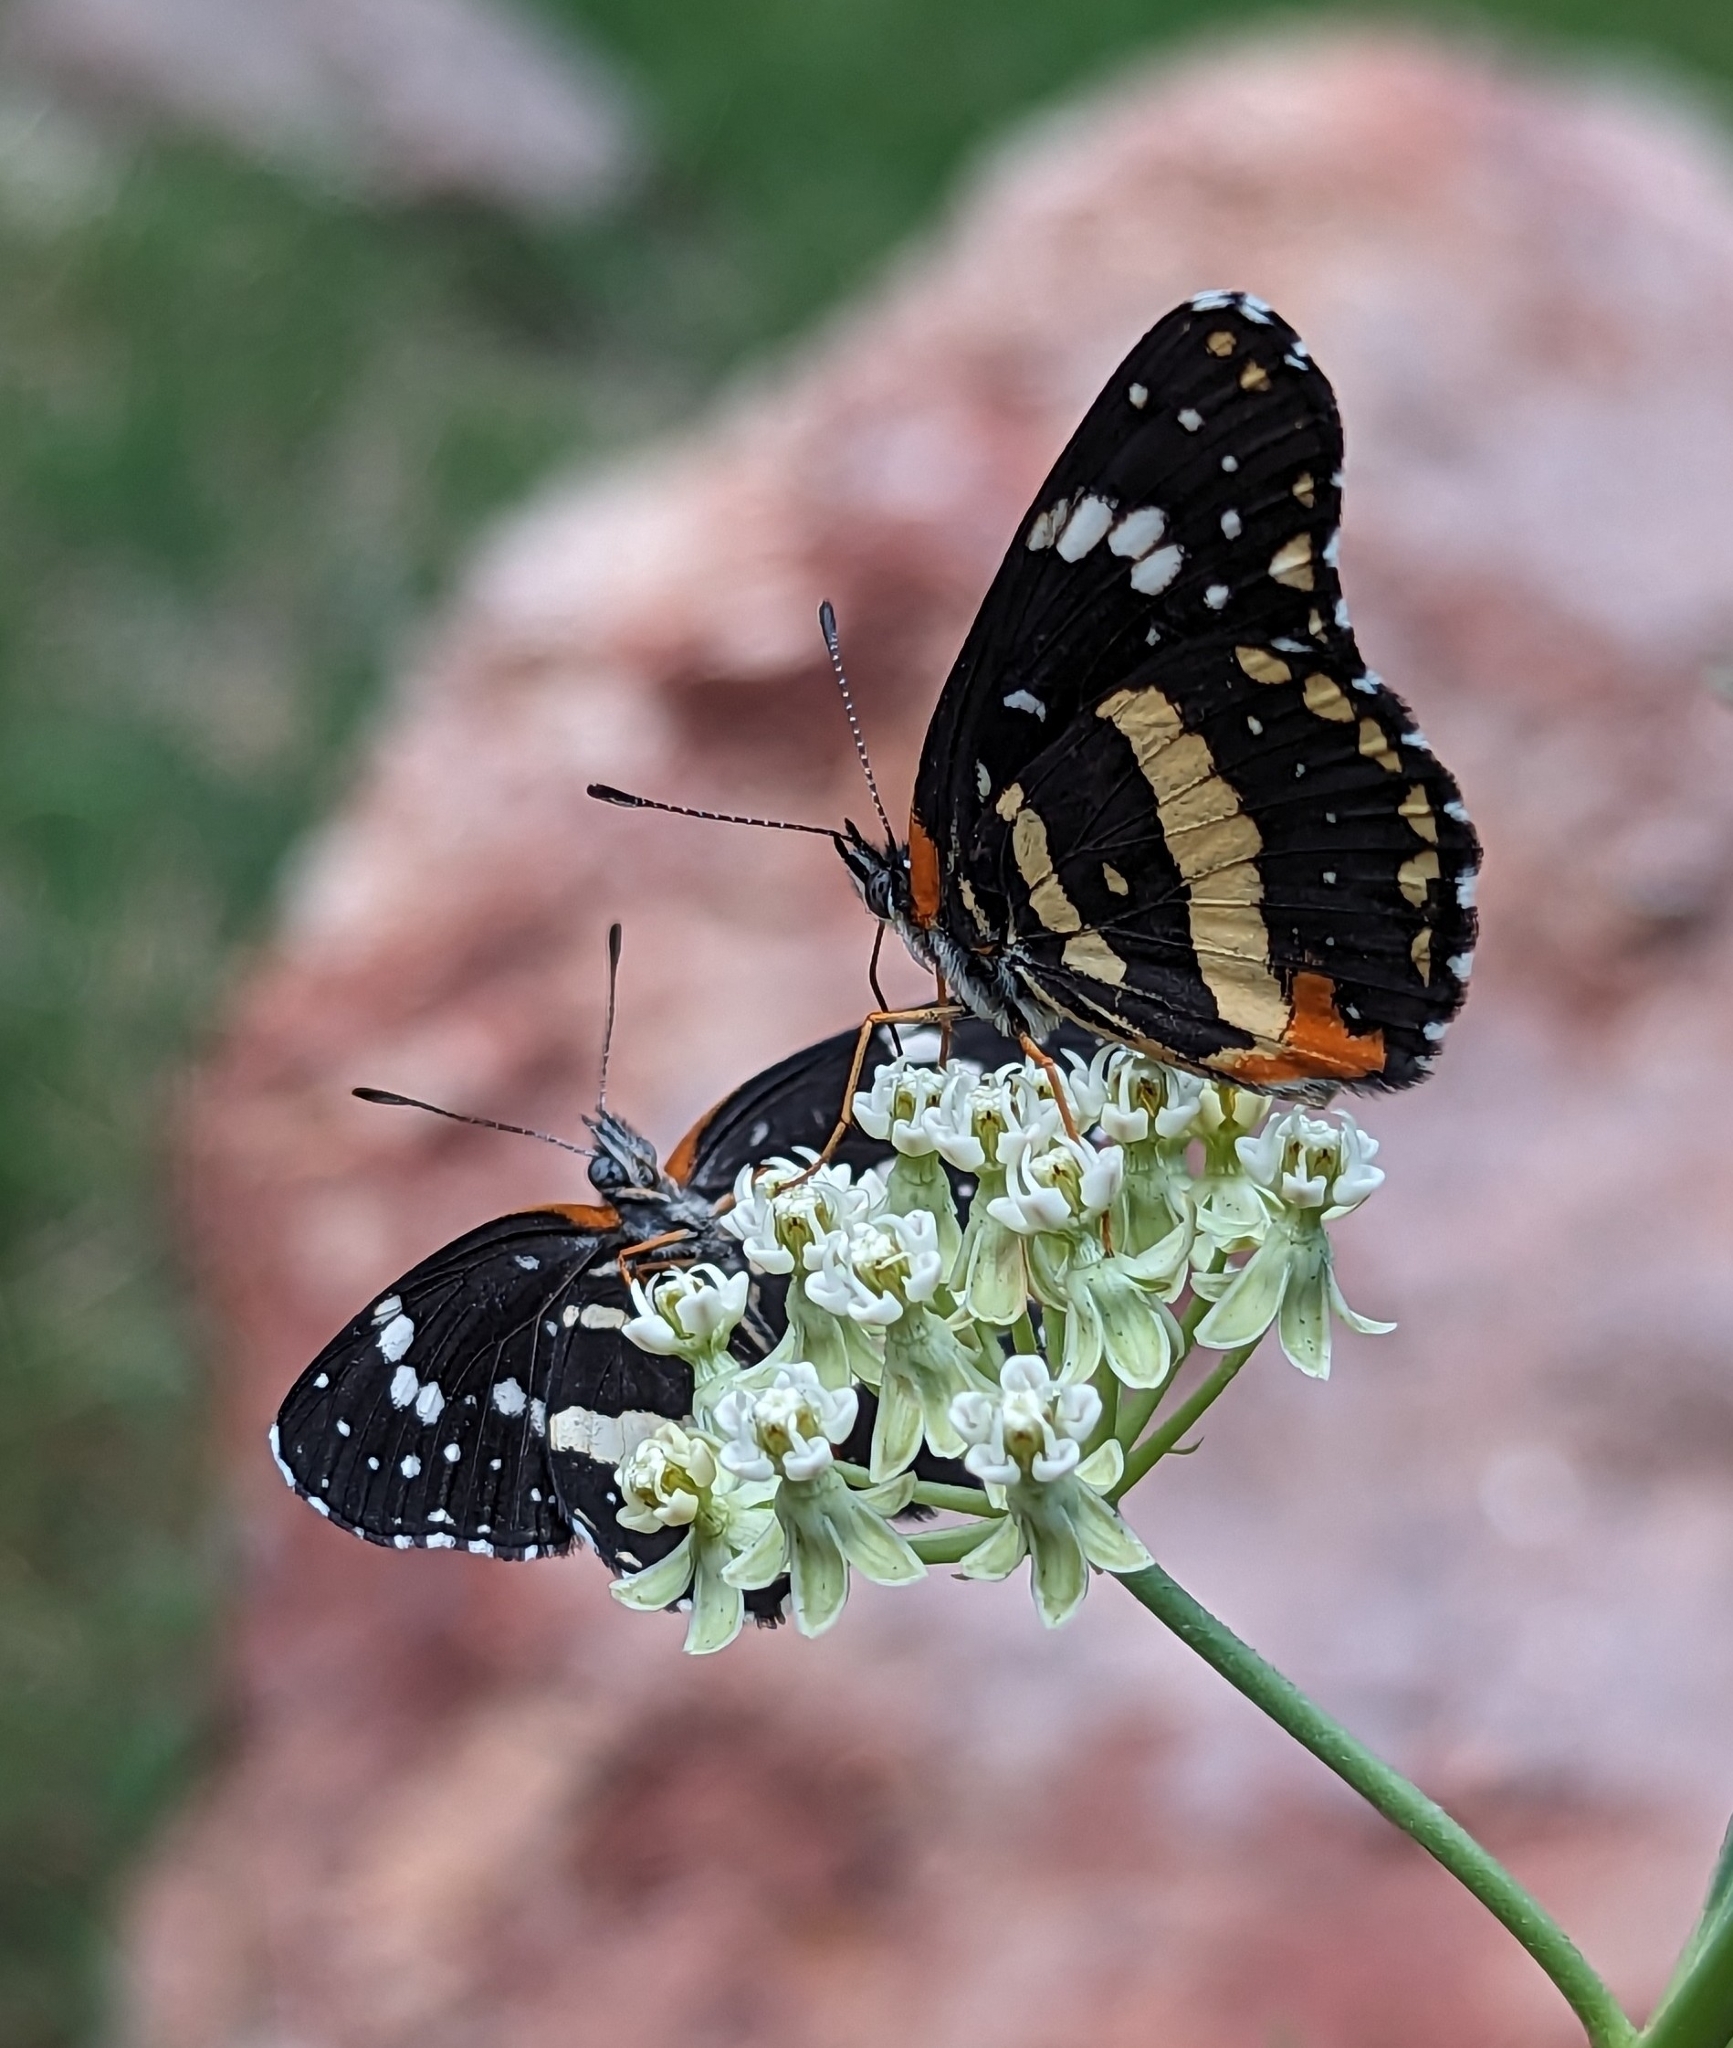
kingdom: Animalia
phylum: Arthropoda
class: Insecta
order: Lepidoptera
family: Nymphalidae
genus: Chlosyne
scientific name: Chlosyne lacinia
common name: Bordered patch
